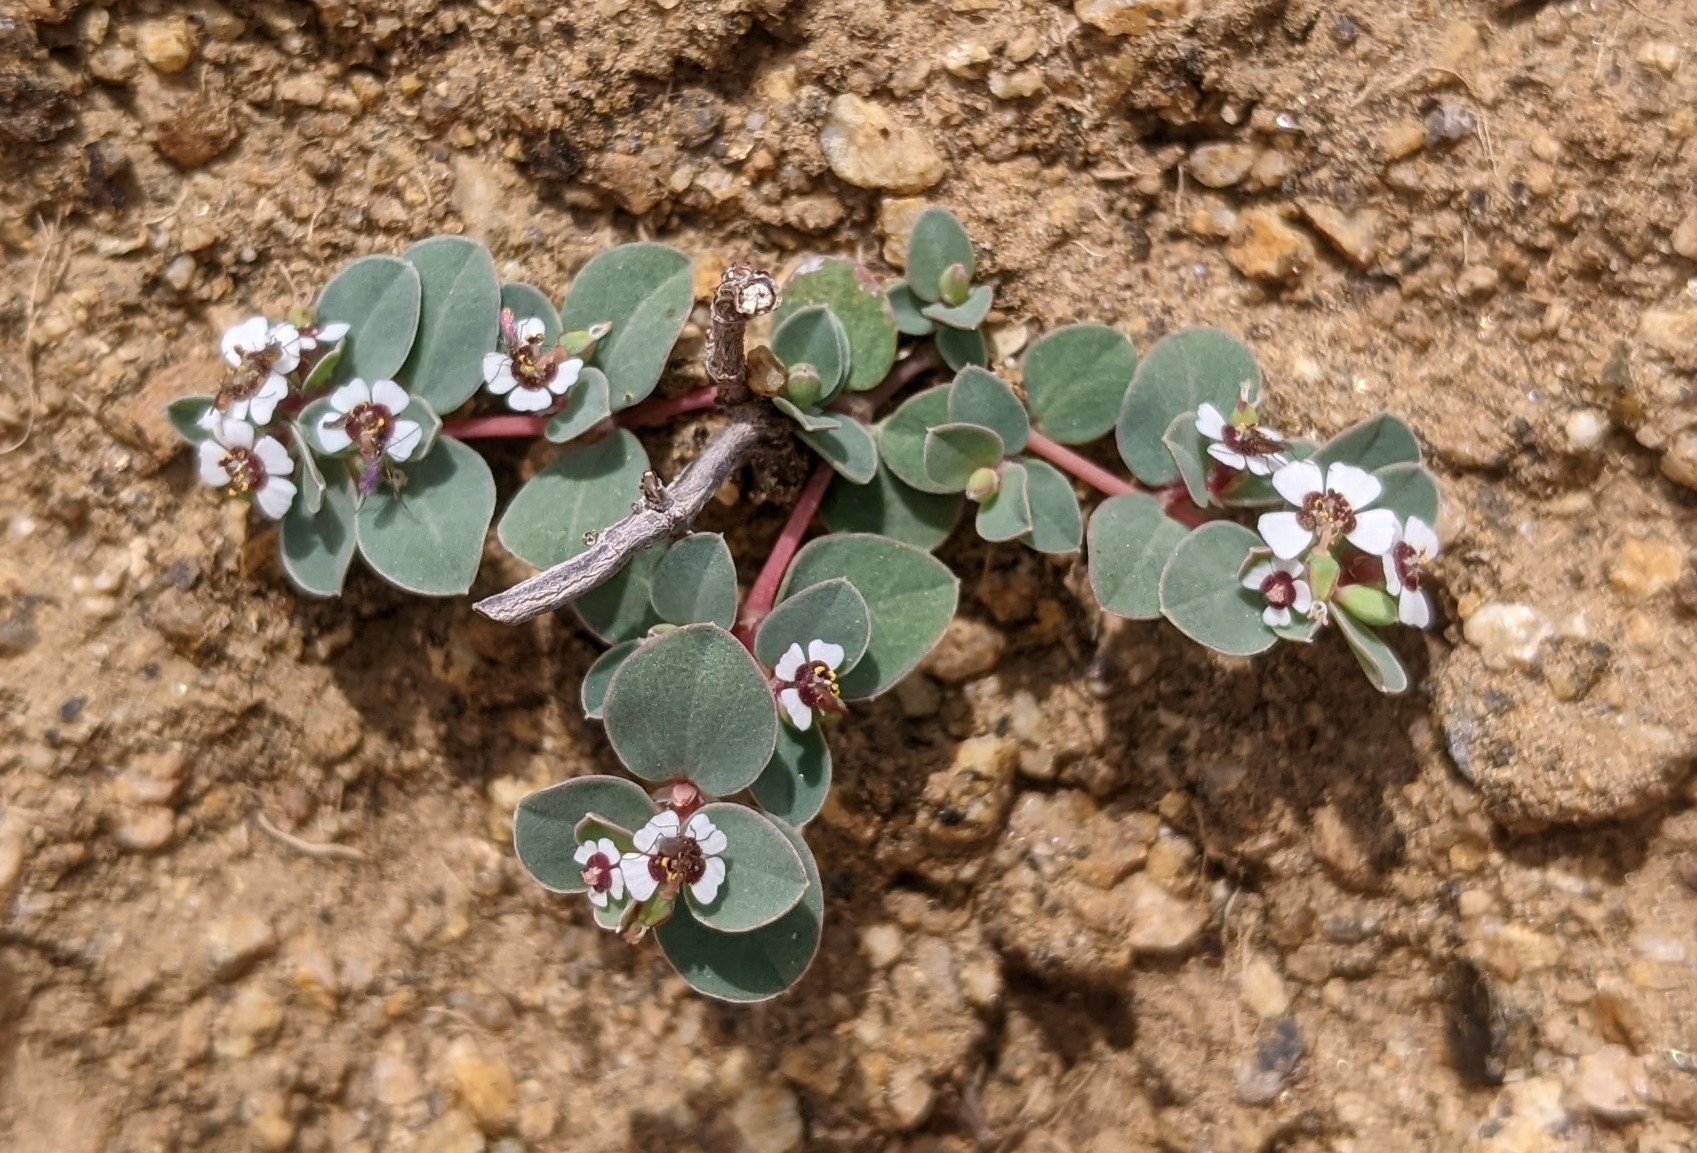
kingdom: Plantae
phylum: Tracheophyta
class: Magnoliopsida
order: Malpighiales
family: Euphorbiaceae
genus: Euphorbia
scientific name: Euphorbia albomarginata
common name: Whitemargin sandmat
